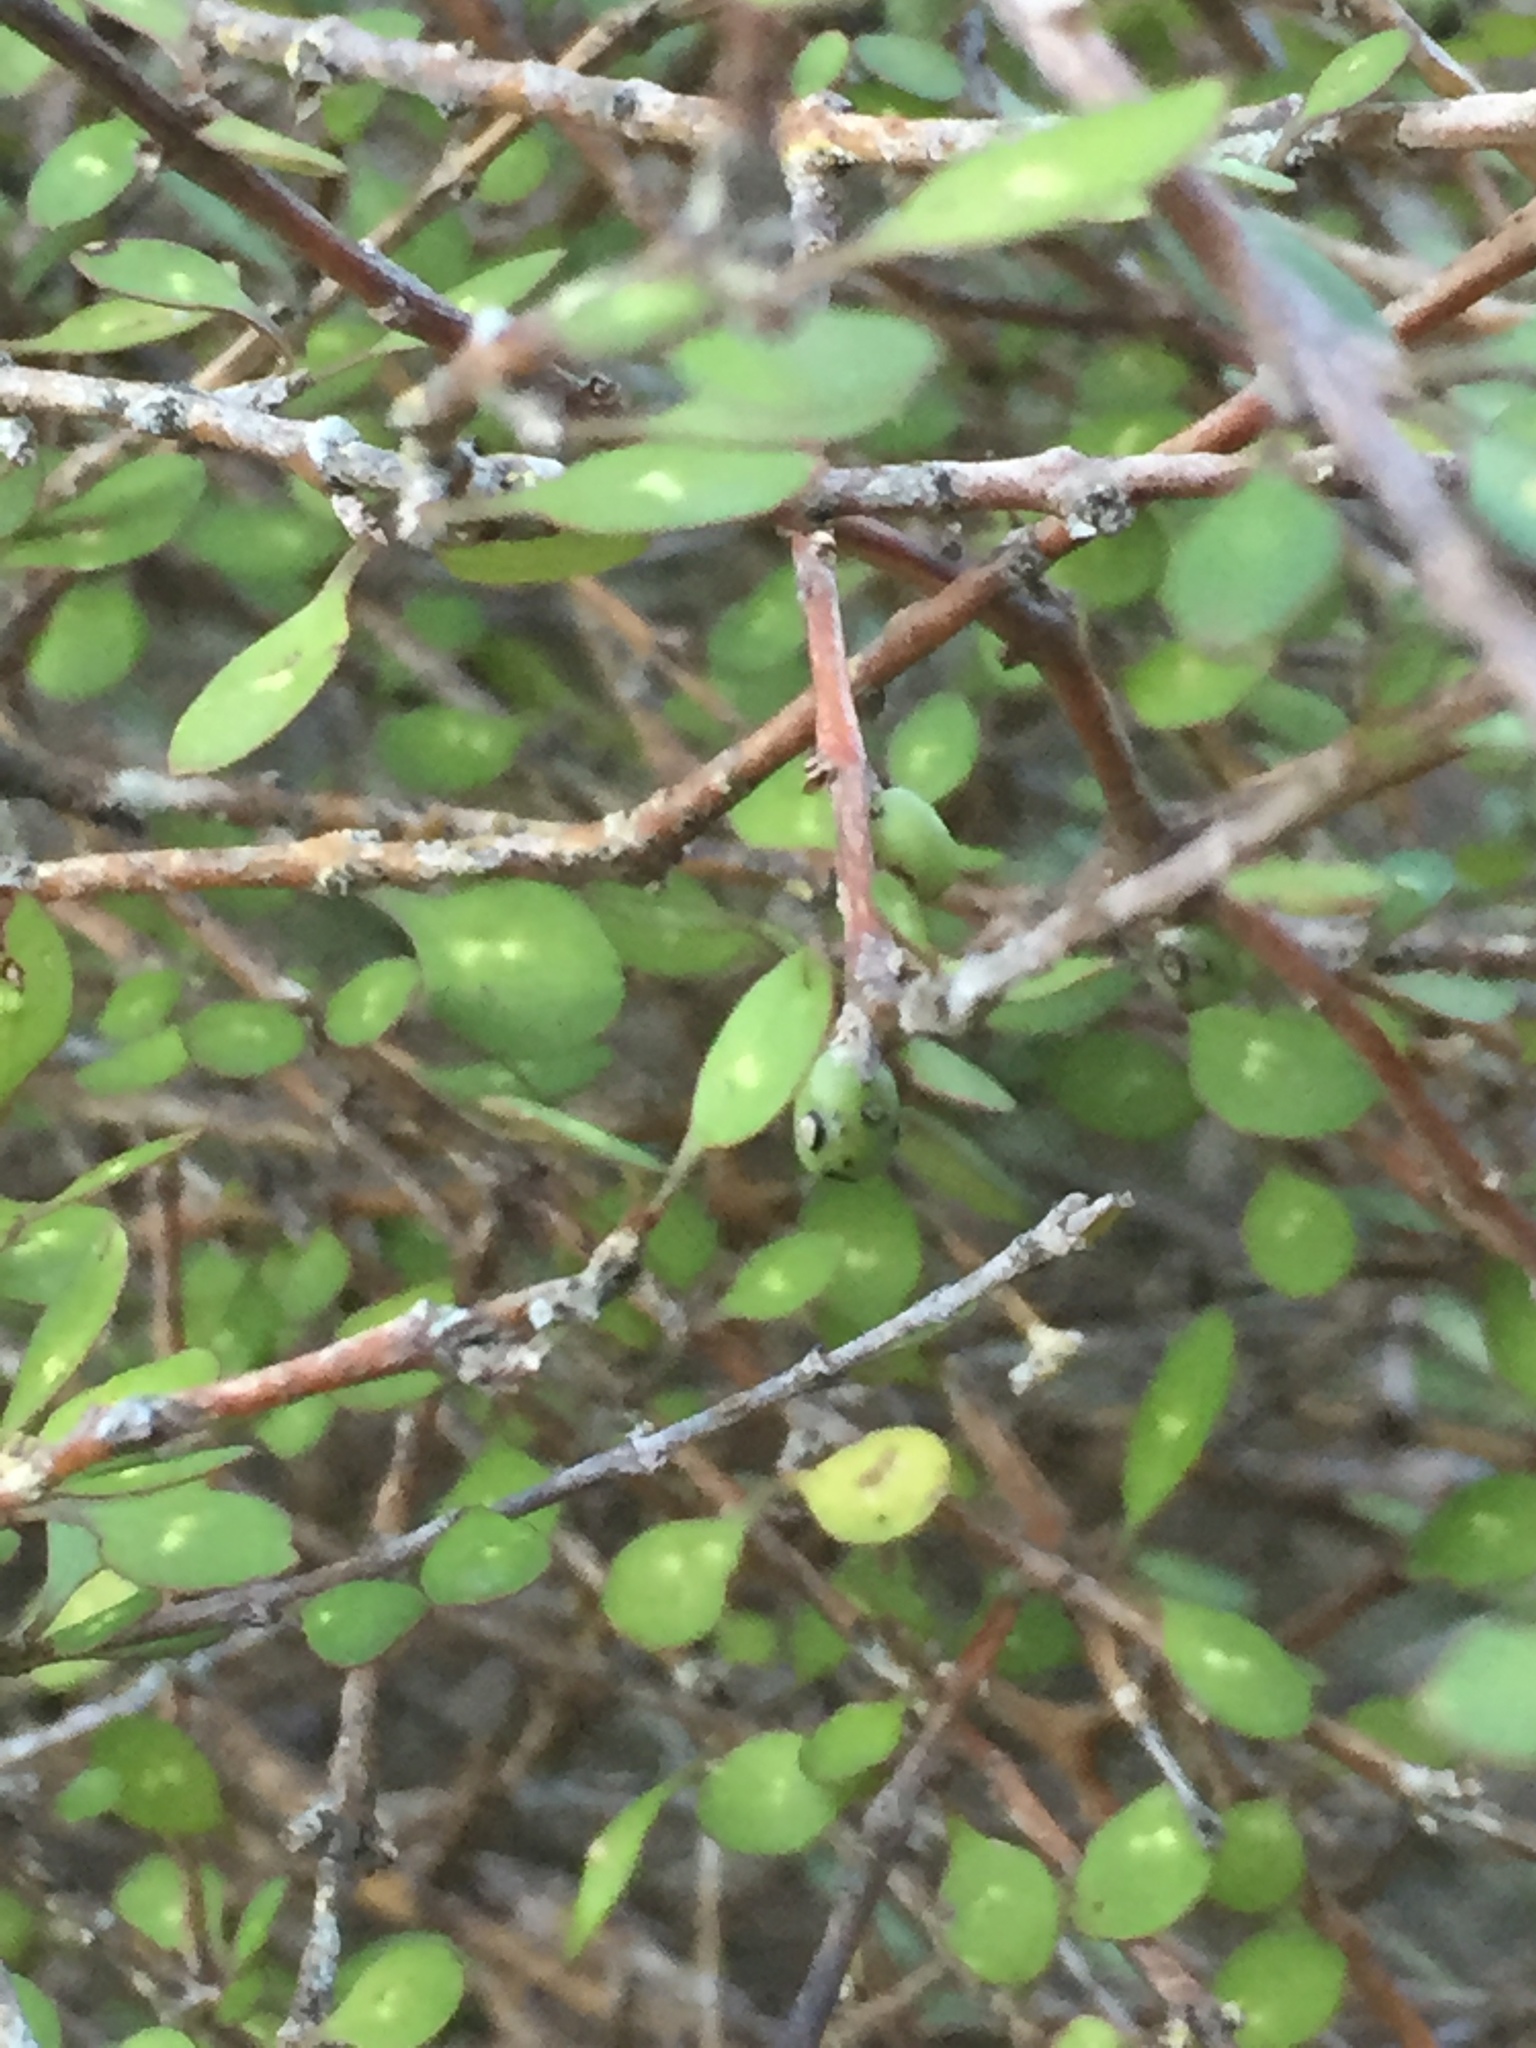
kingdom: Plantae
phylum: Tracheophyta
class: Magnoliopsida
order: Gentianales
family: Rubiaceae
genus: Coprosma
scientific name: Coprosma virescens
